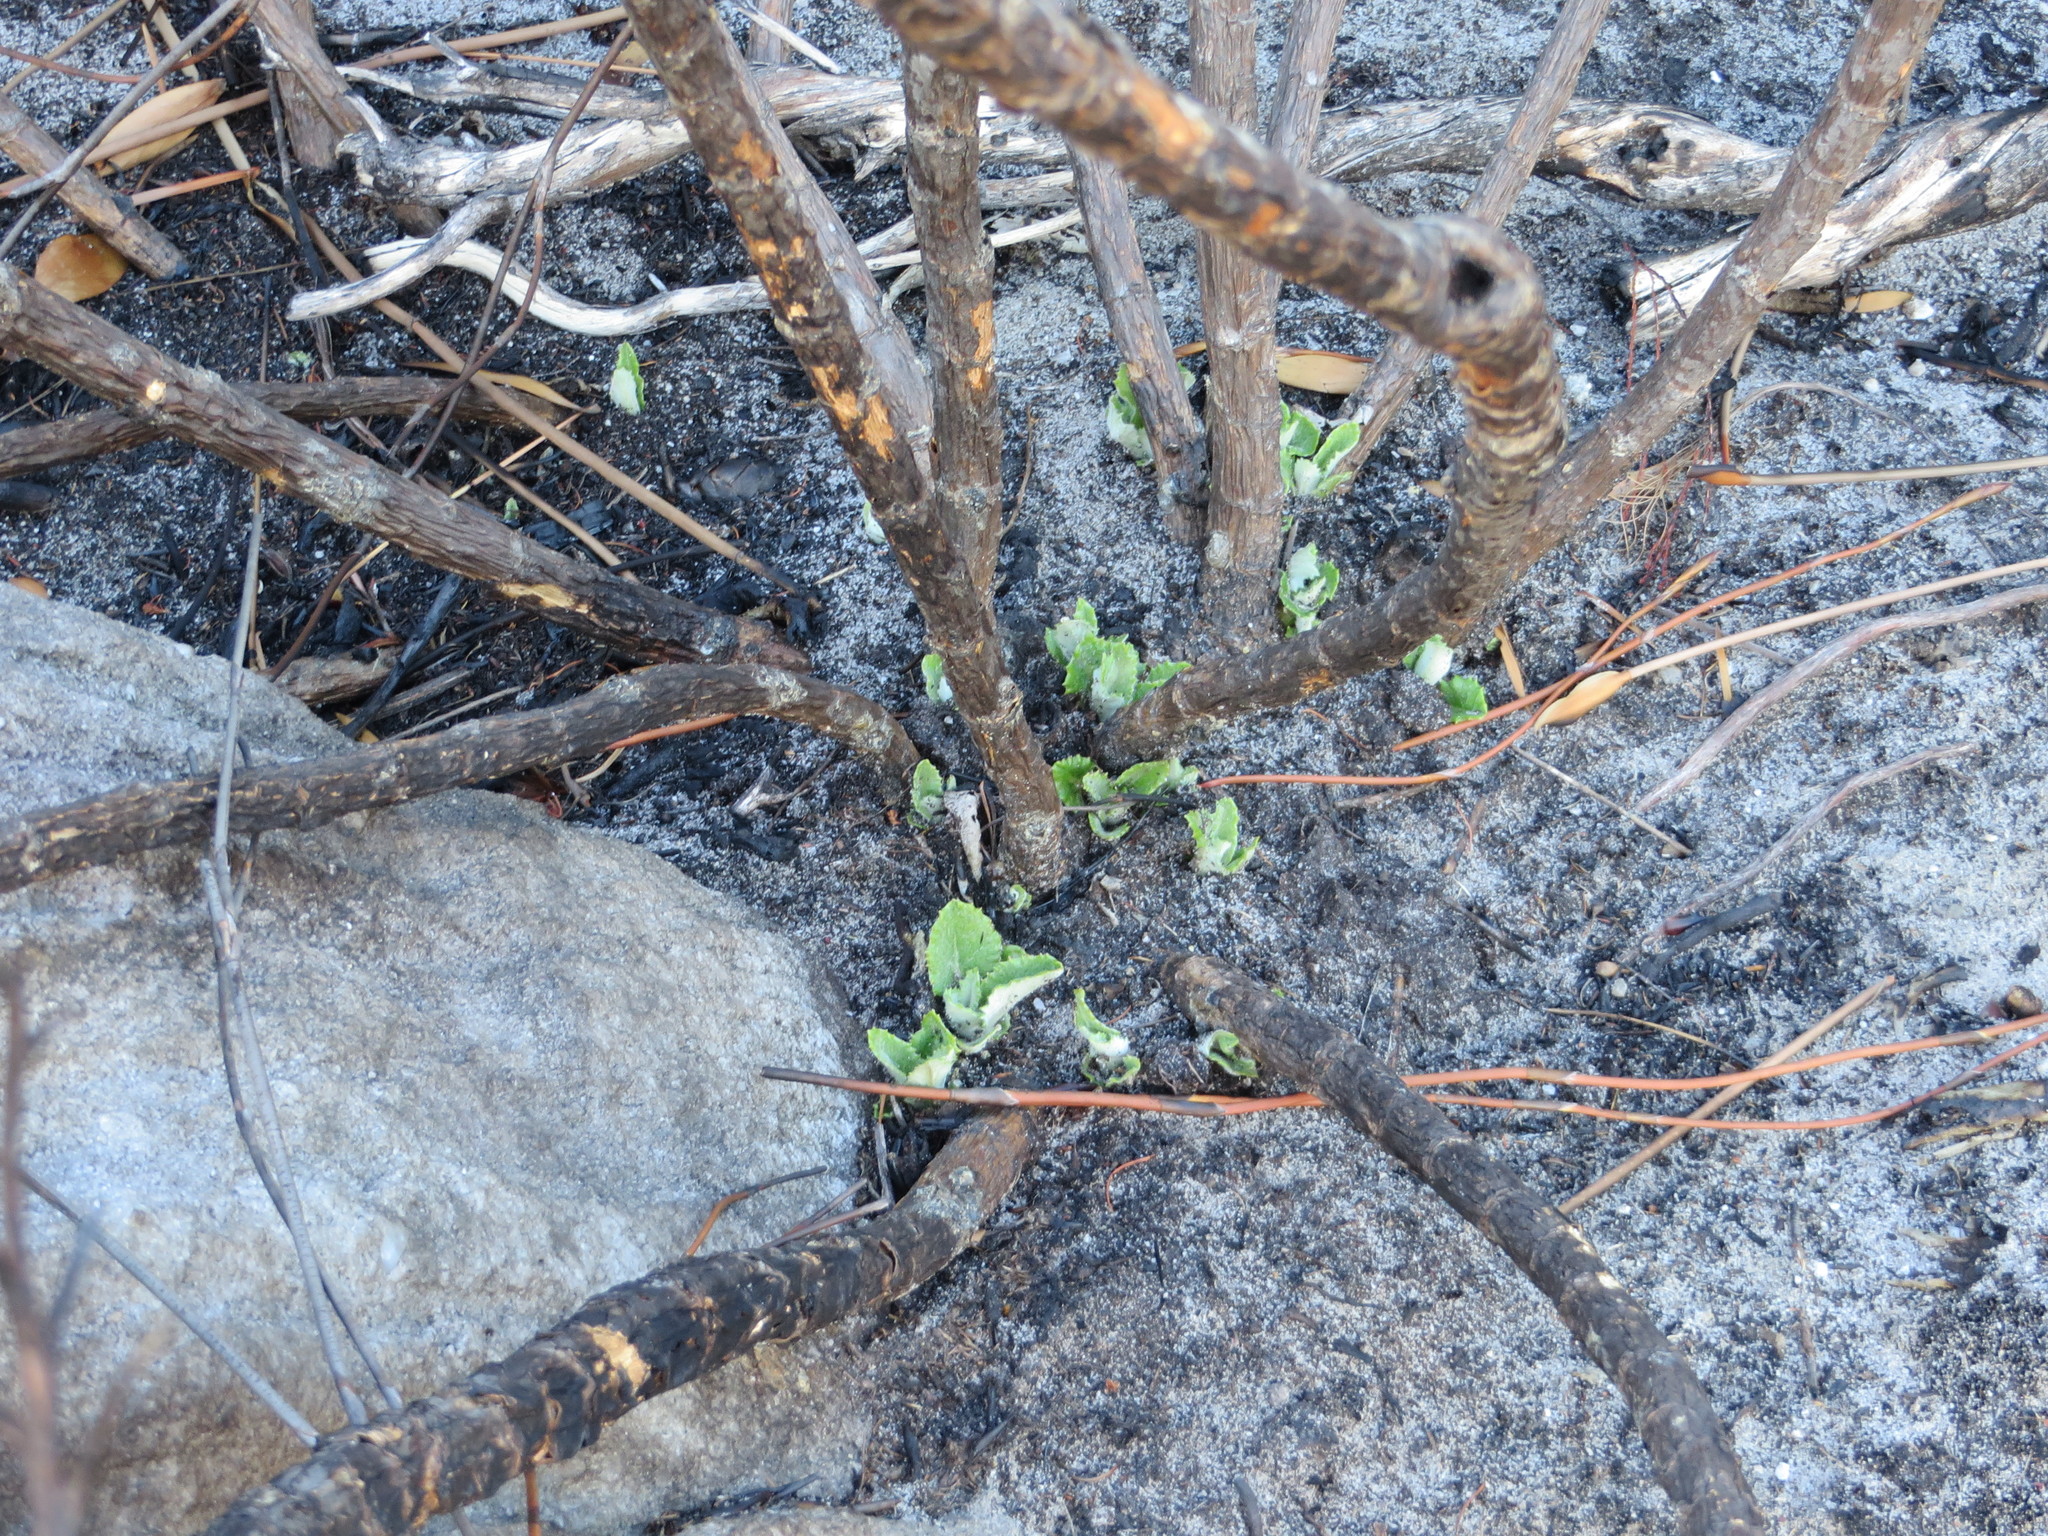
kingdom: Plantae
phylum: Tracheophyta
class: Magnoliopsida
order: Apiales
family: Apiaceae
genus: Hermas
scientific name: Hermas villosa
